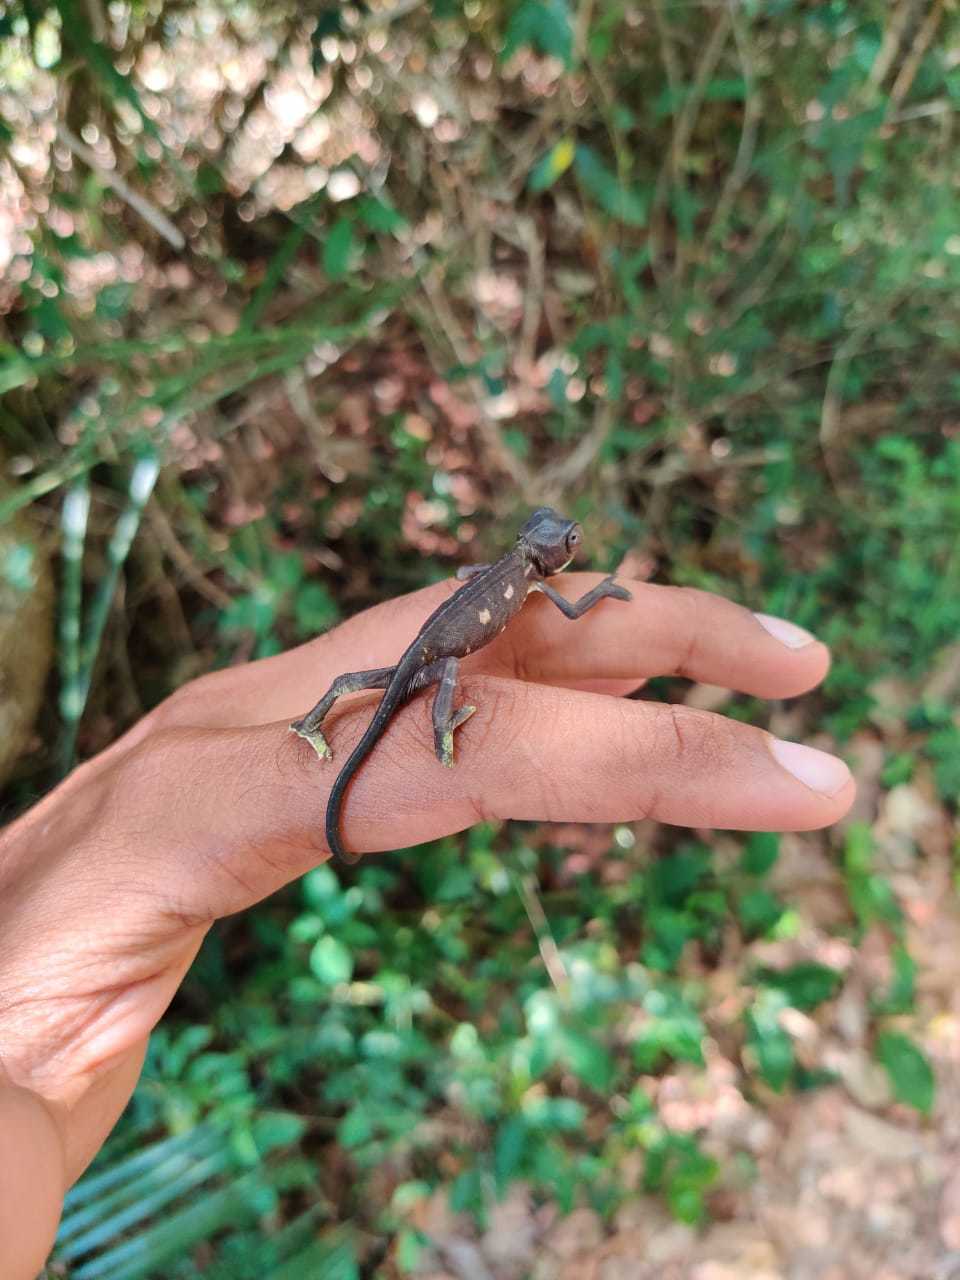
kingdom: Animalia
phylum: Chordata
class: Squamata
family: Chamaeleonidae
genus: Chamaeleo
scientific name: Chamaeleo zeylanicus
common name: Indian chameleon
